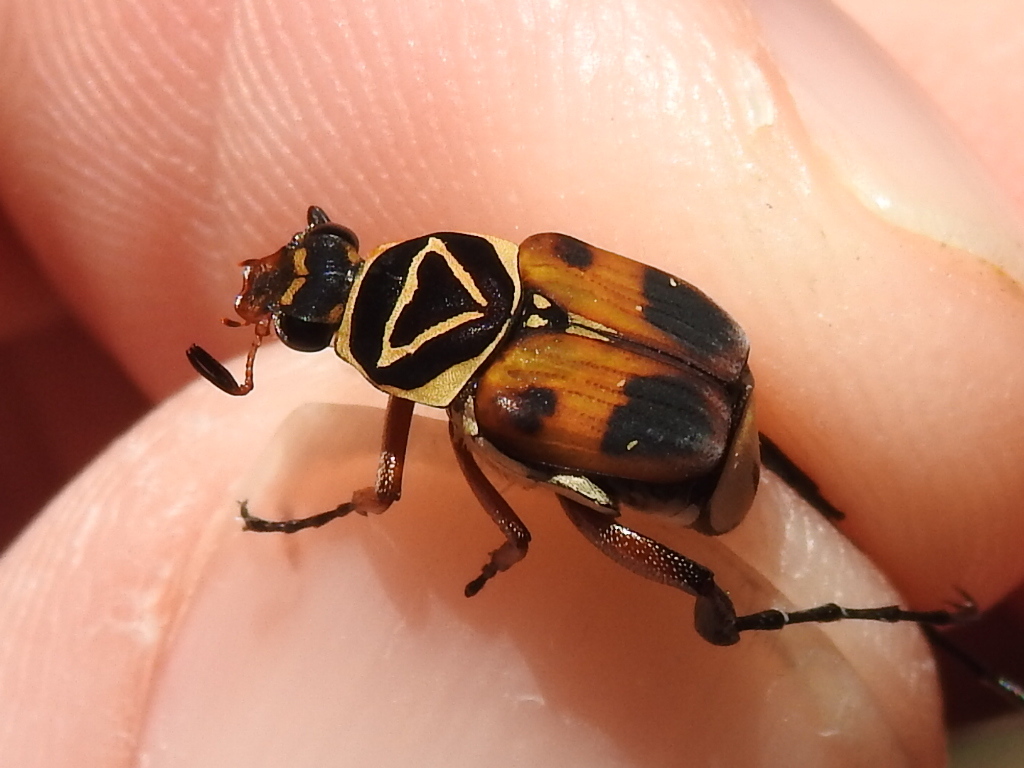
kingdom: Animalia
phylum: Arthropoda
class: Insecta
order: Coleoptera
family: Scarabaeidae
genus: Trigonopeltastes
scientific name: Trigonopeltastes delta
